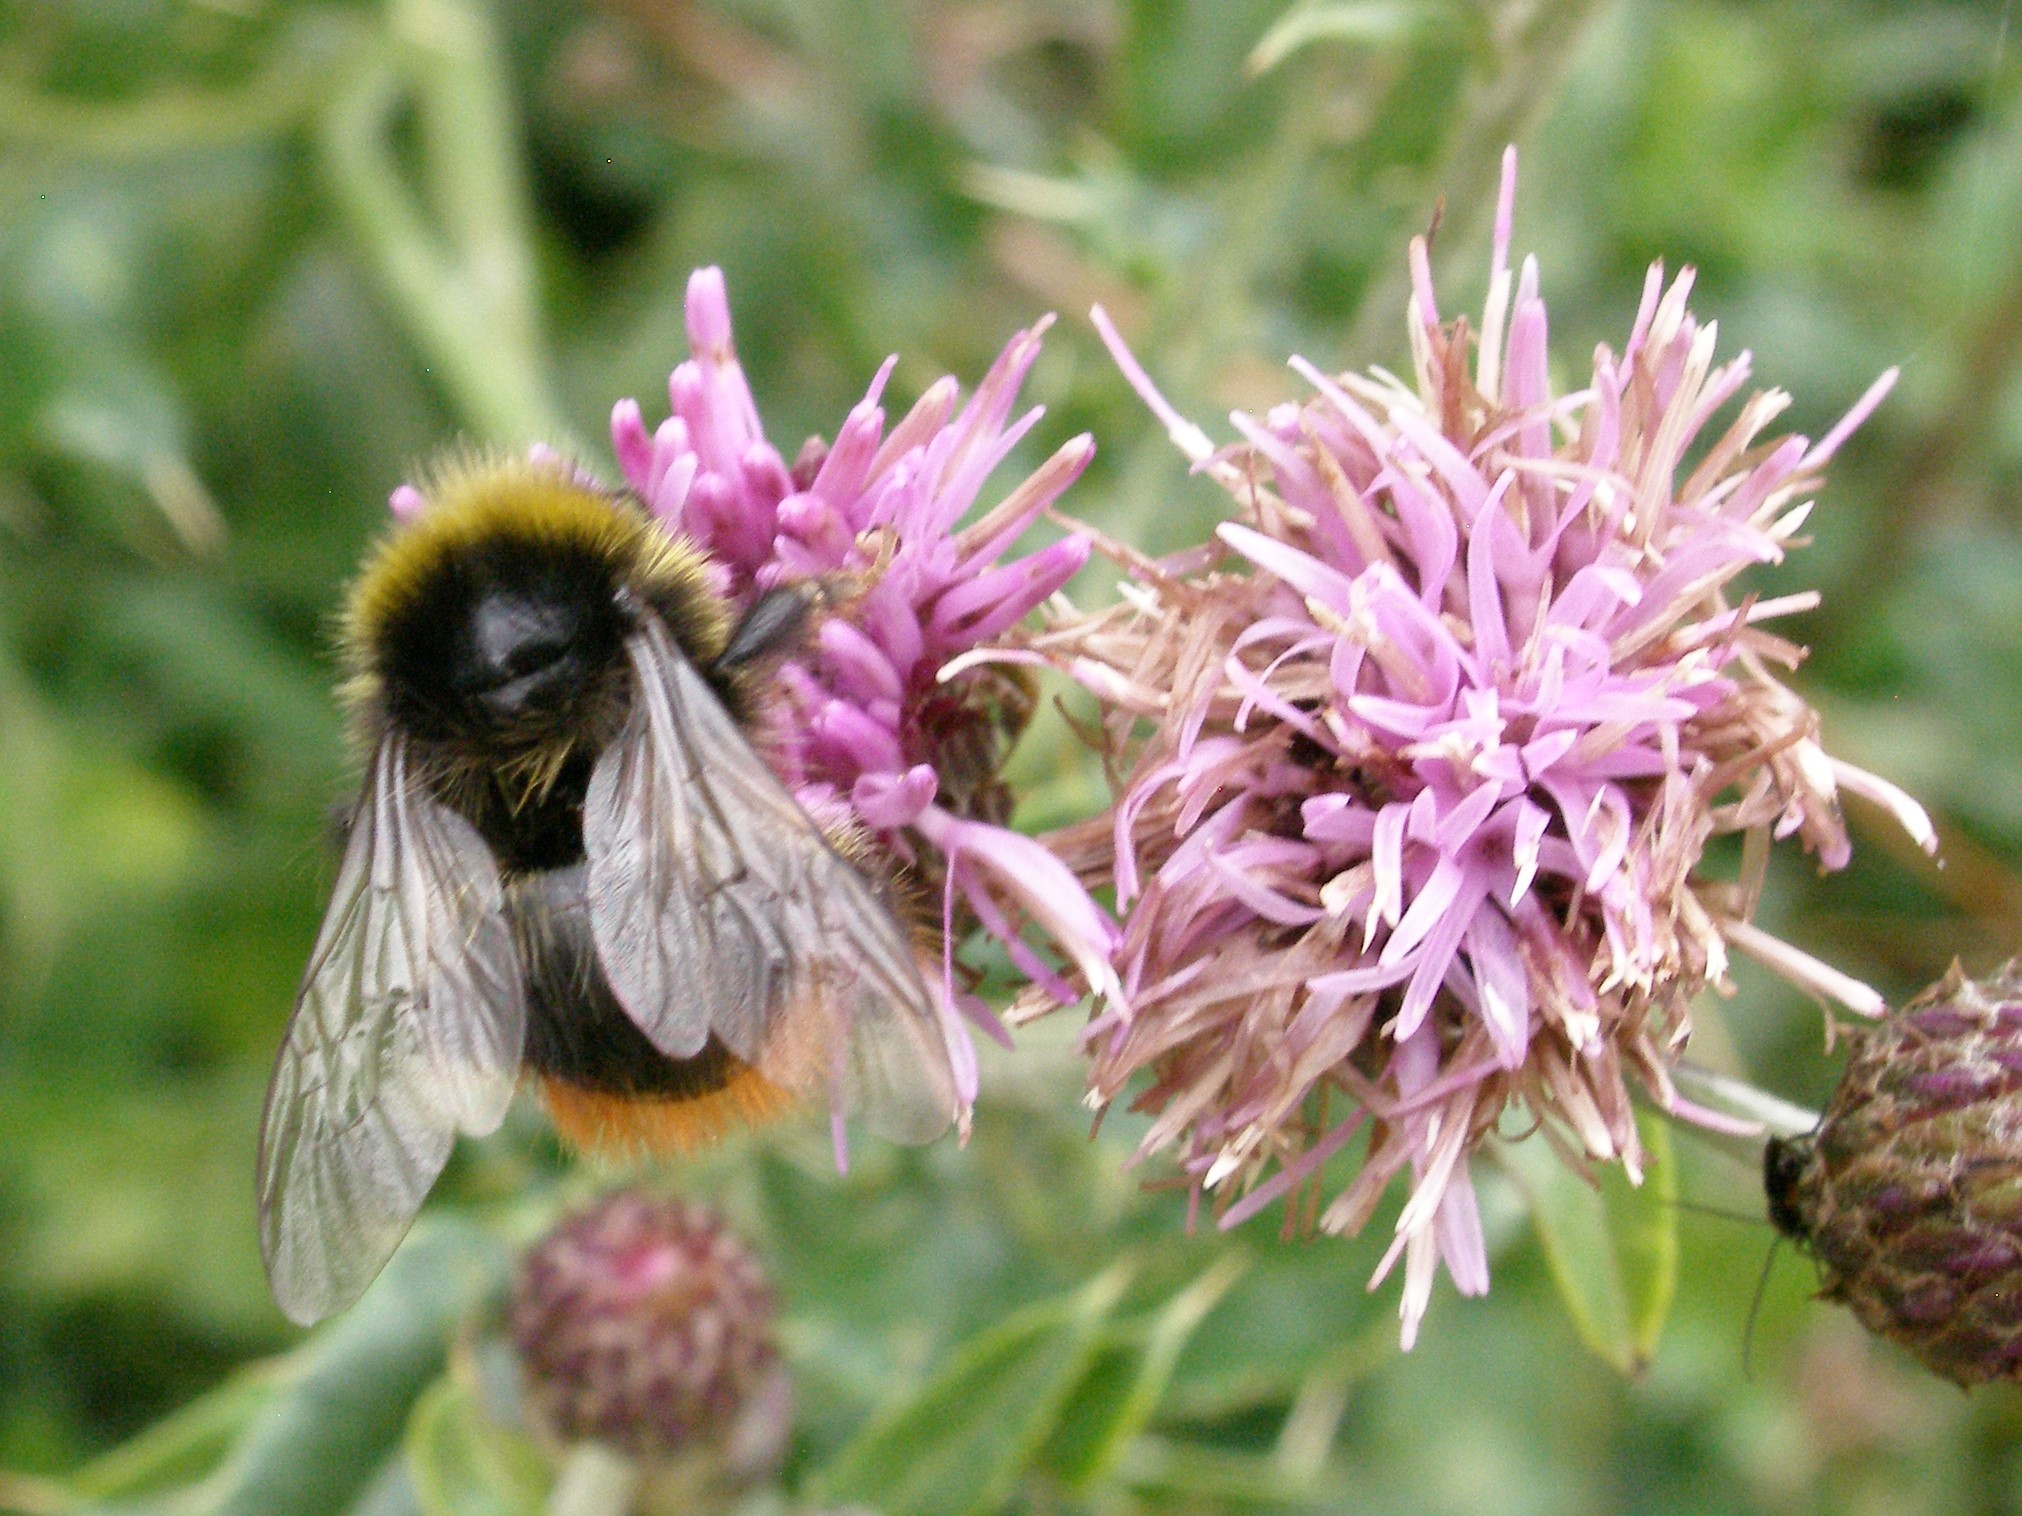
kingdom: Animalia
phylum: Arthropoda
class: Insecta
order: Hymenoptera
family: Apidae
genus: Bombus
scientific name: Bombus lapidarius
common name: Large red-tailed humble-bee
